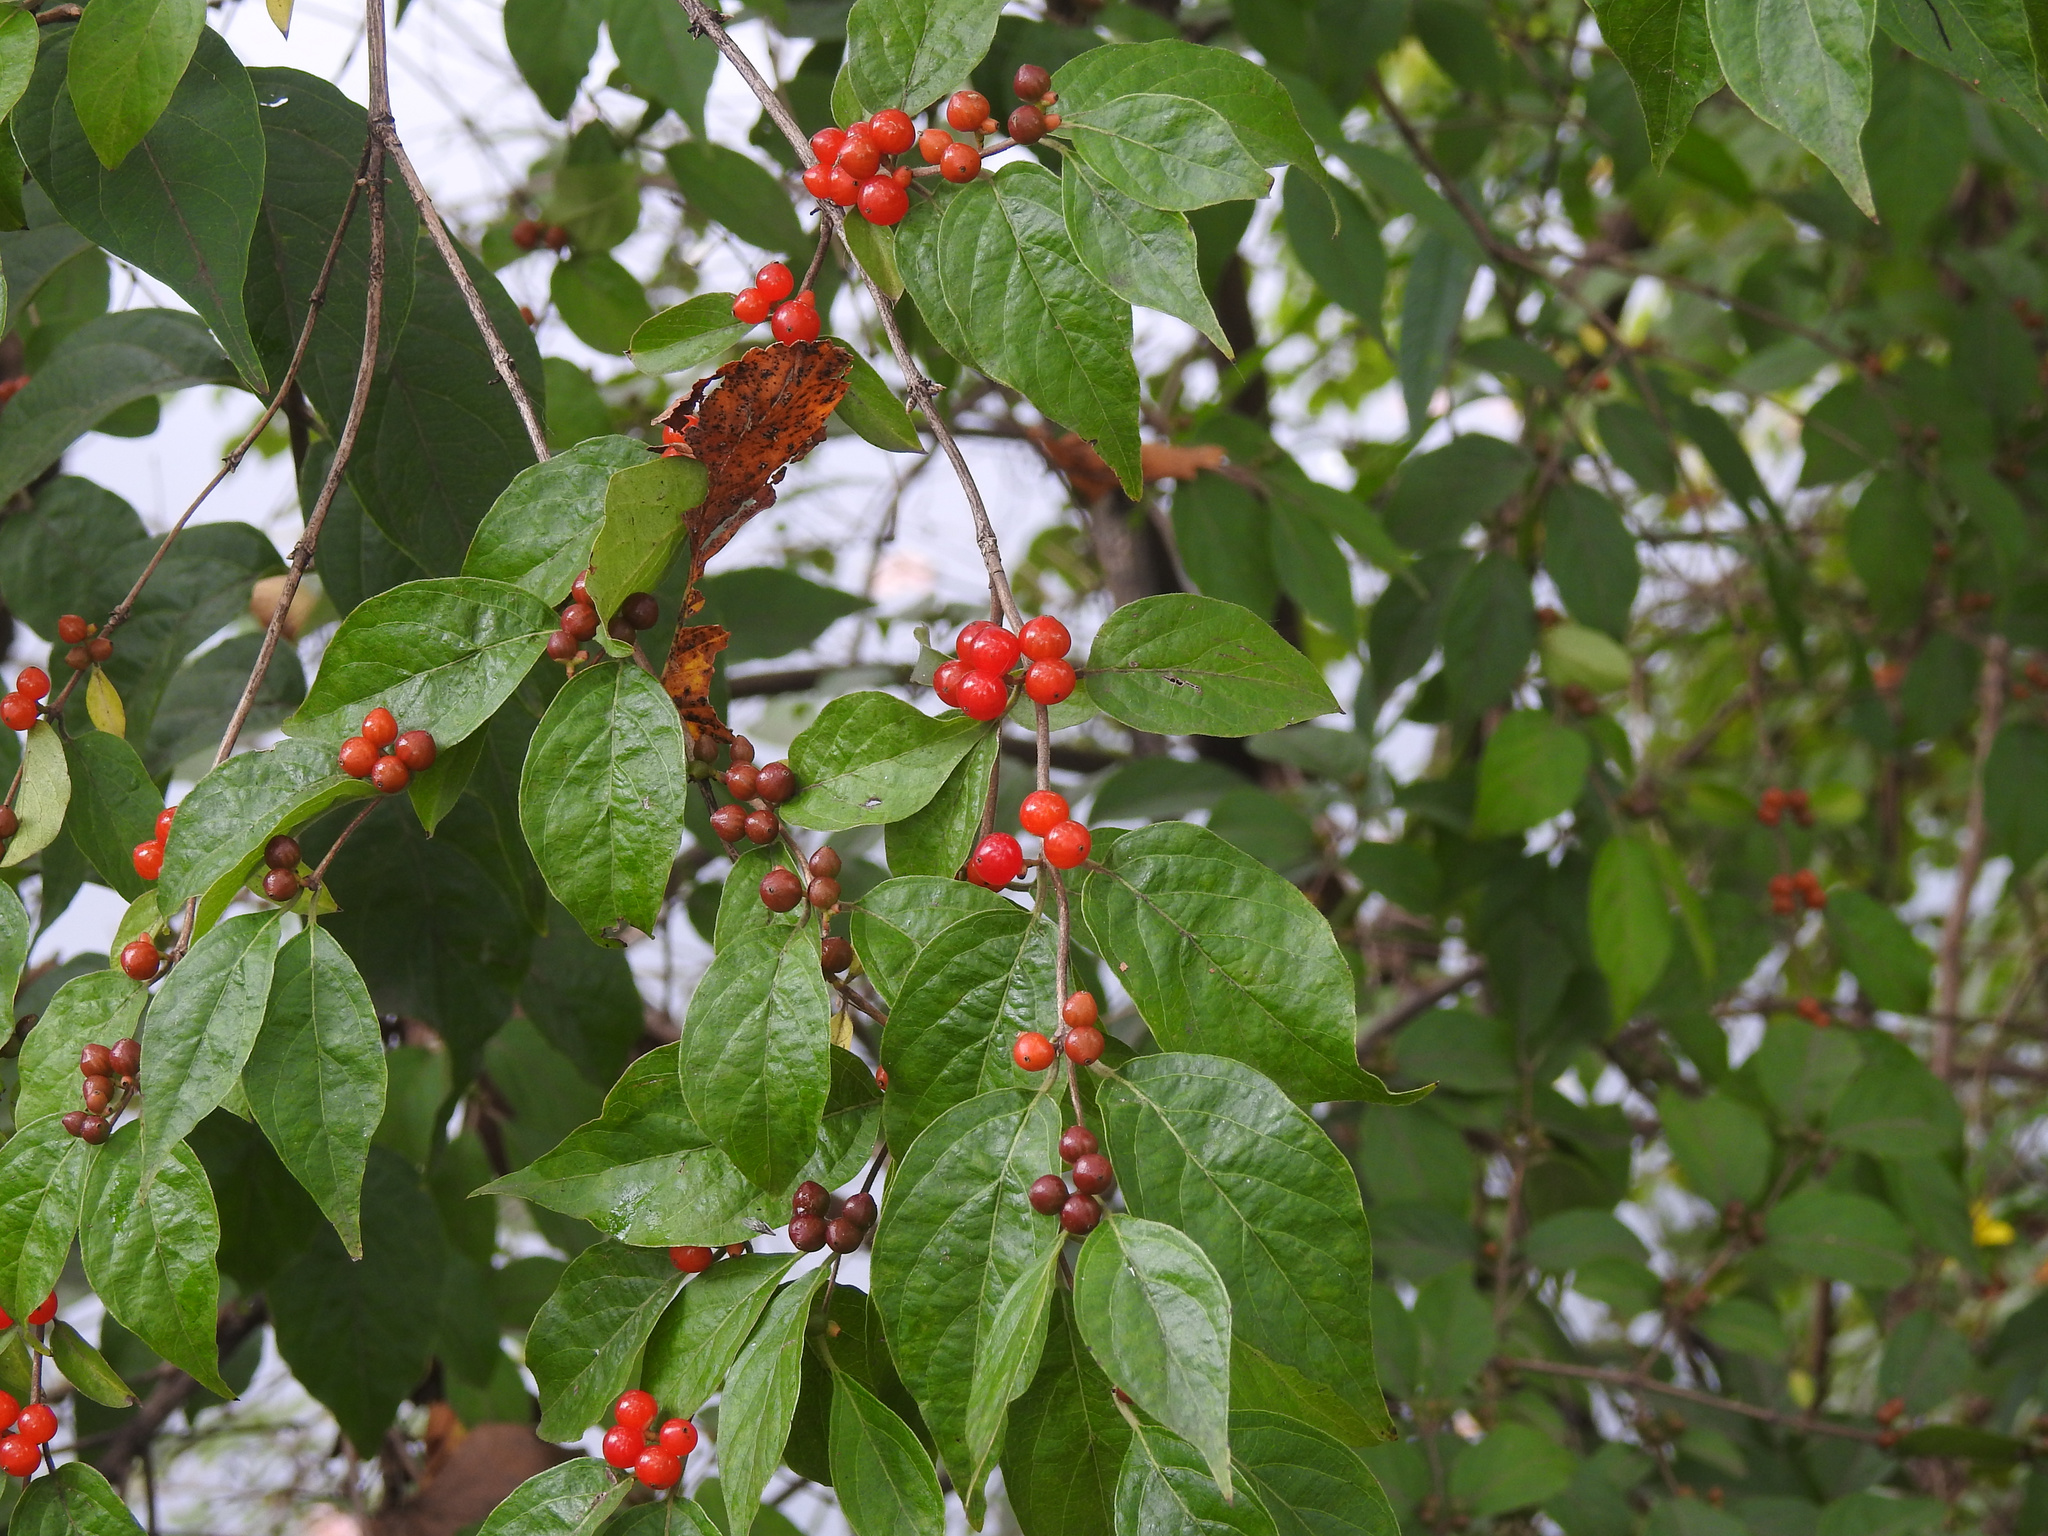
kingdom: Plantae
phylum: Tracheophyta
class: Magnoliopsida
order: Dipsacales
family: Caprifoliaceae
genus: Lonicera
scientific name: Lonicera maackii
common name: Amur honeysuckle
